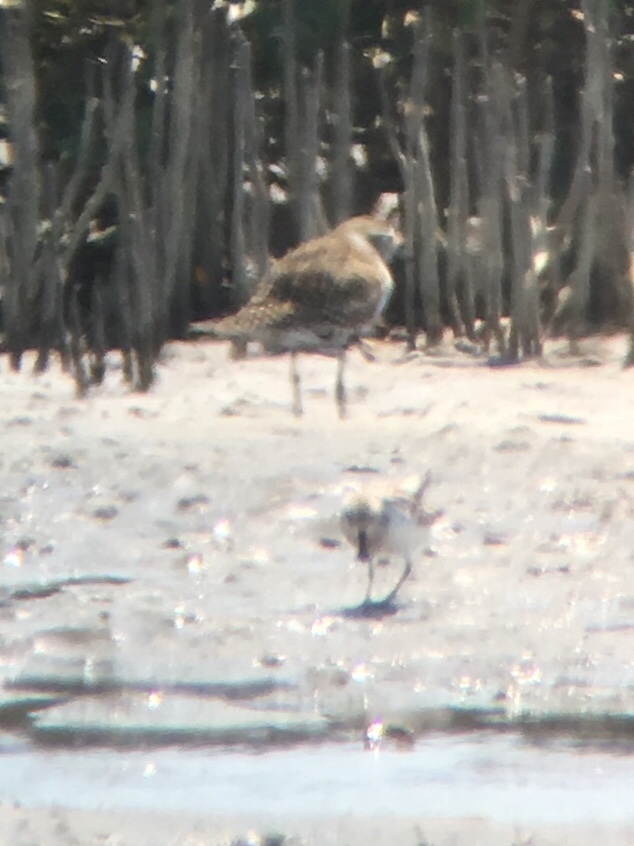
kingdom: Animalia
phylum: Chordata
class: Aves
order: Charadriiformes
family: Scolopacidae
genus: Calidris
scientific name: Calidris pygmaea
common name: Spoon-billed sandpiper
